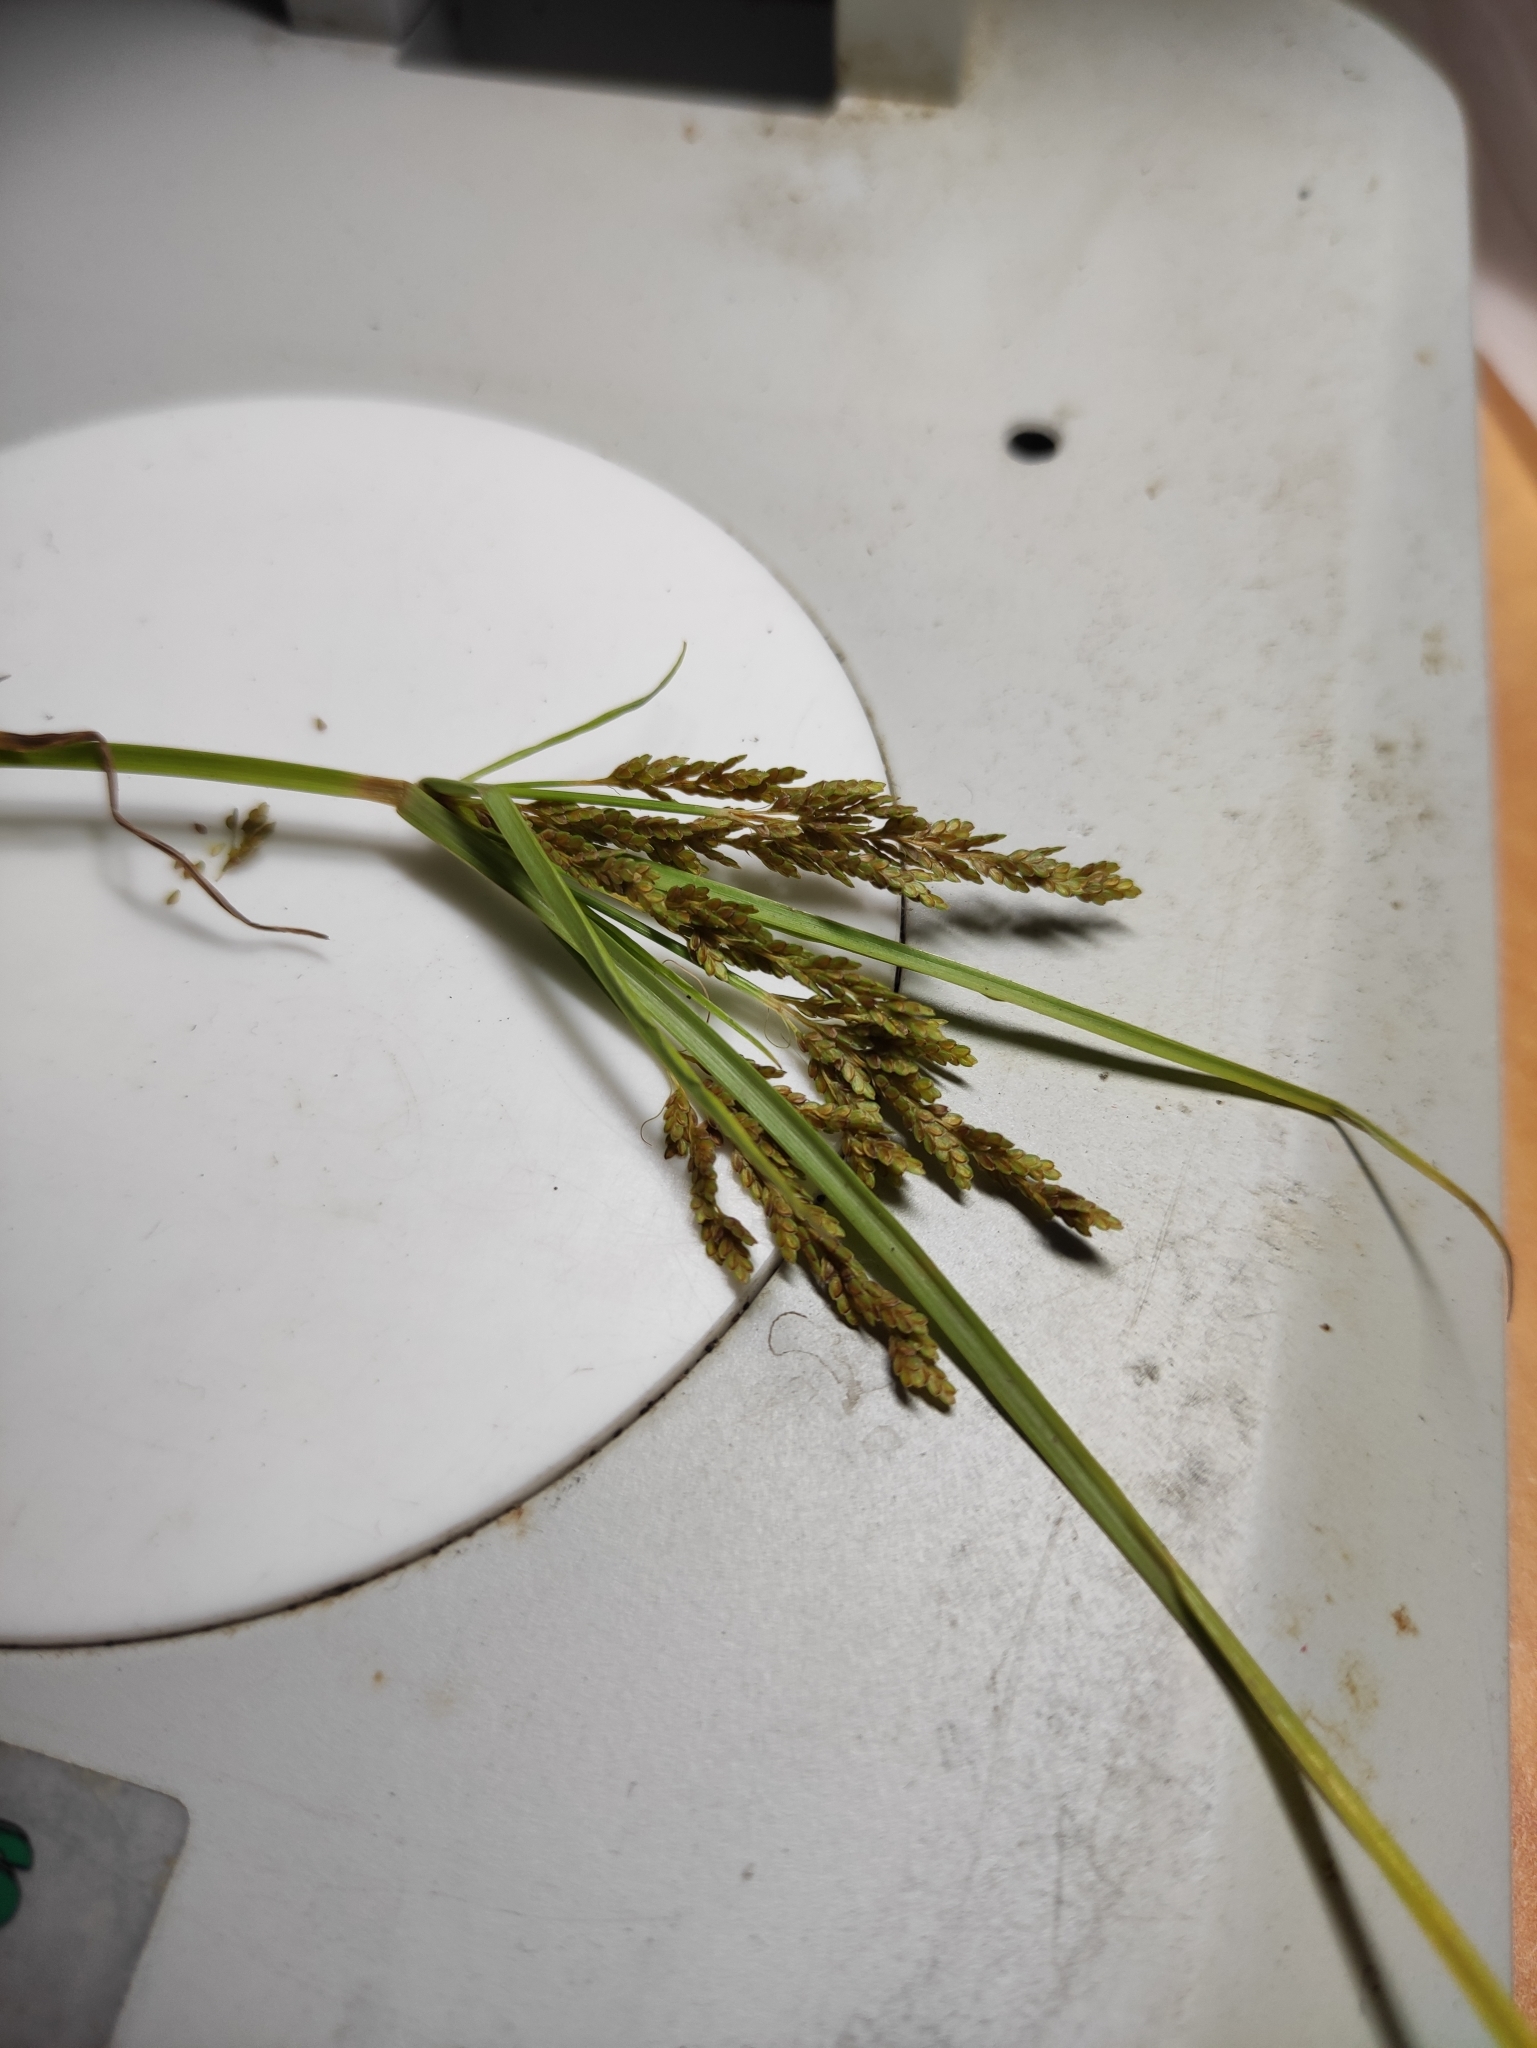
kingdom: Plantae
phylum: Tracheophyta
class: Liliopsida
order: Poales
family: Cyperaceae
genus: Cyperus
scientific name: Cyperus iria
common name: Ricefield flatsedge
